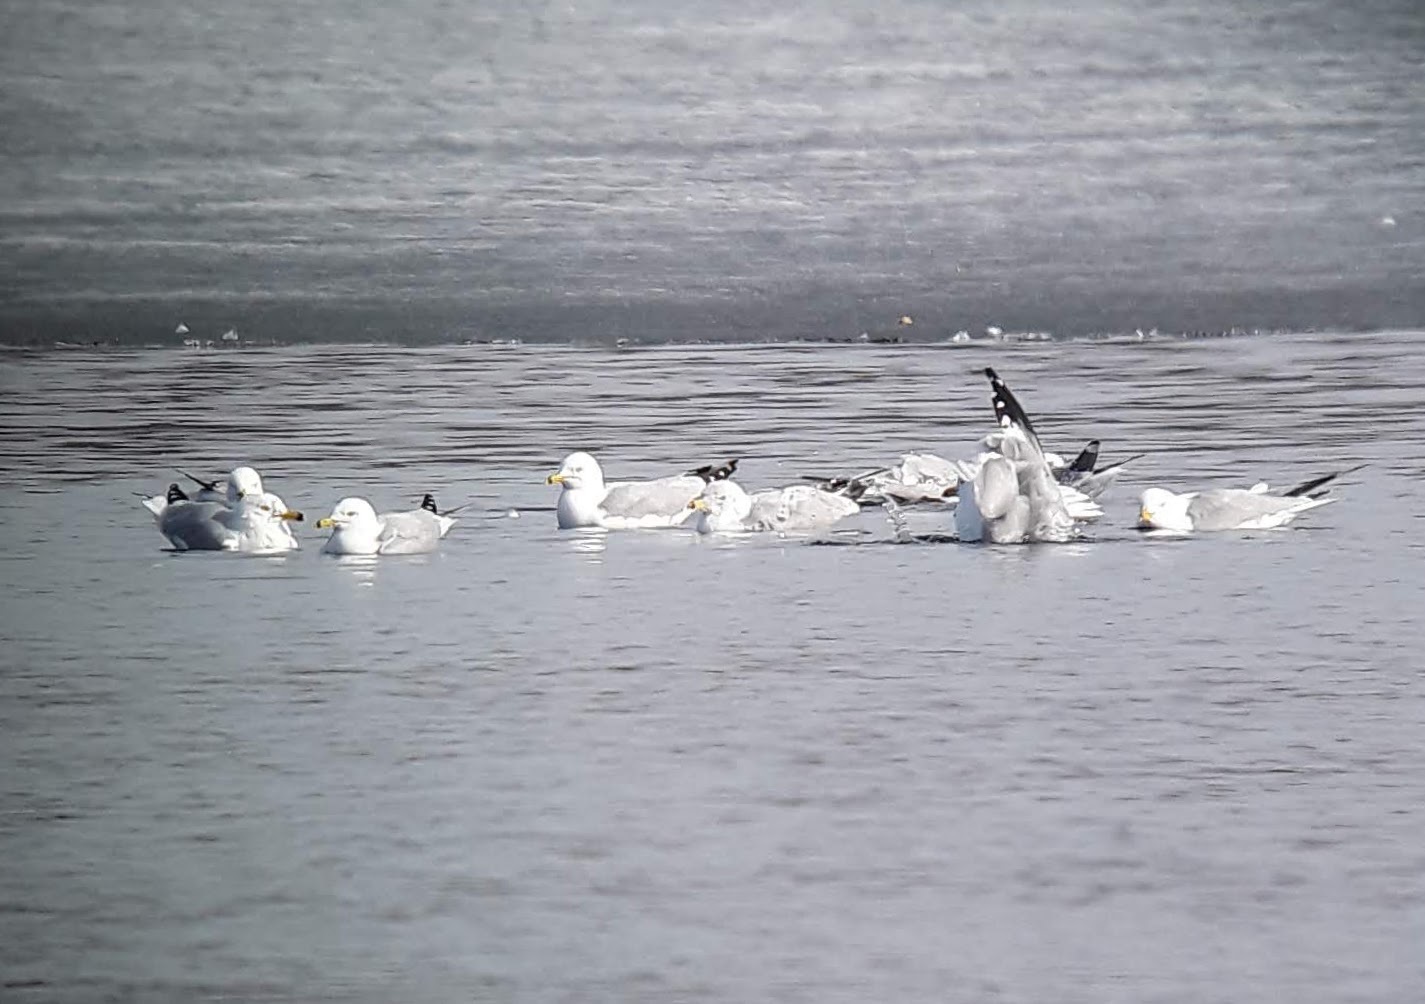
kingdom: Animalia
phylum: Chordata
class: Aves
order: Charadriiformes
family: Laridae
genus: Larus
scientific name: Larus delawarensis
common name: Ring-billed gull
